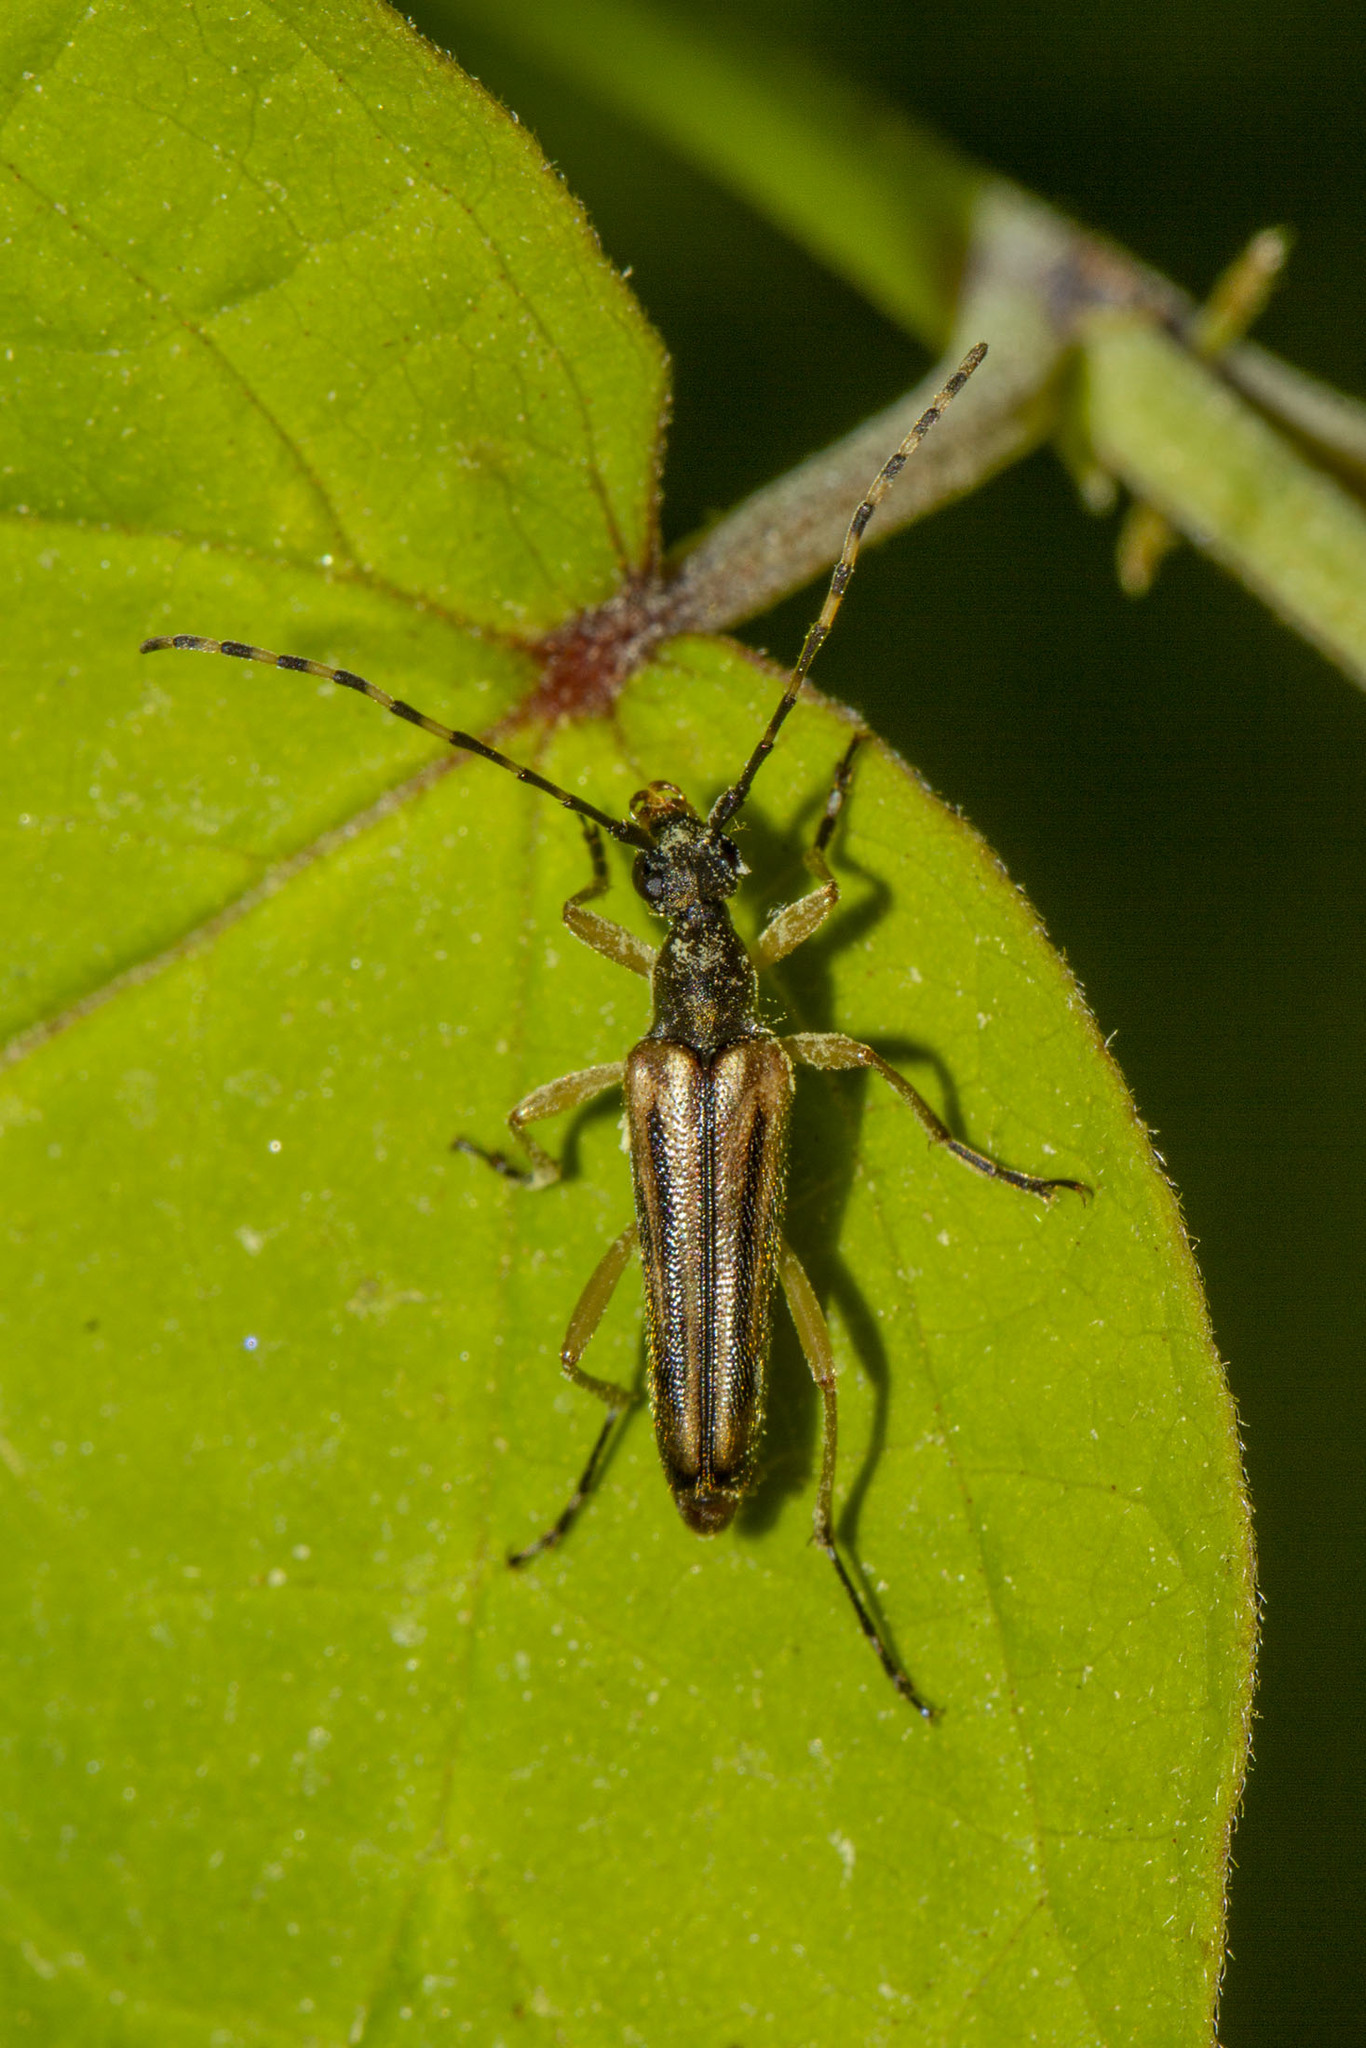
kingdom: Animalia
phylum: Arthropoda
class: Insecta
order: Coleoptera
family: Cerambycidae
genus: Analeptura
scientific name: Analeptura lineola
